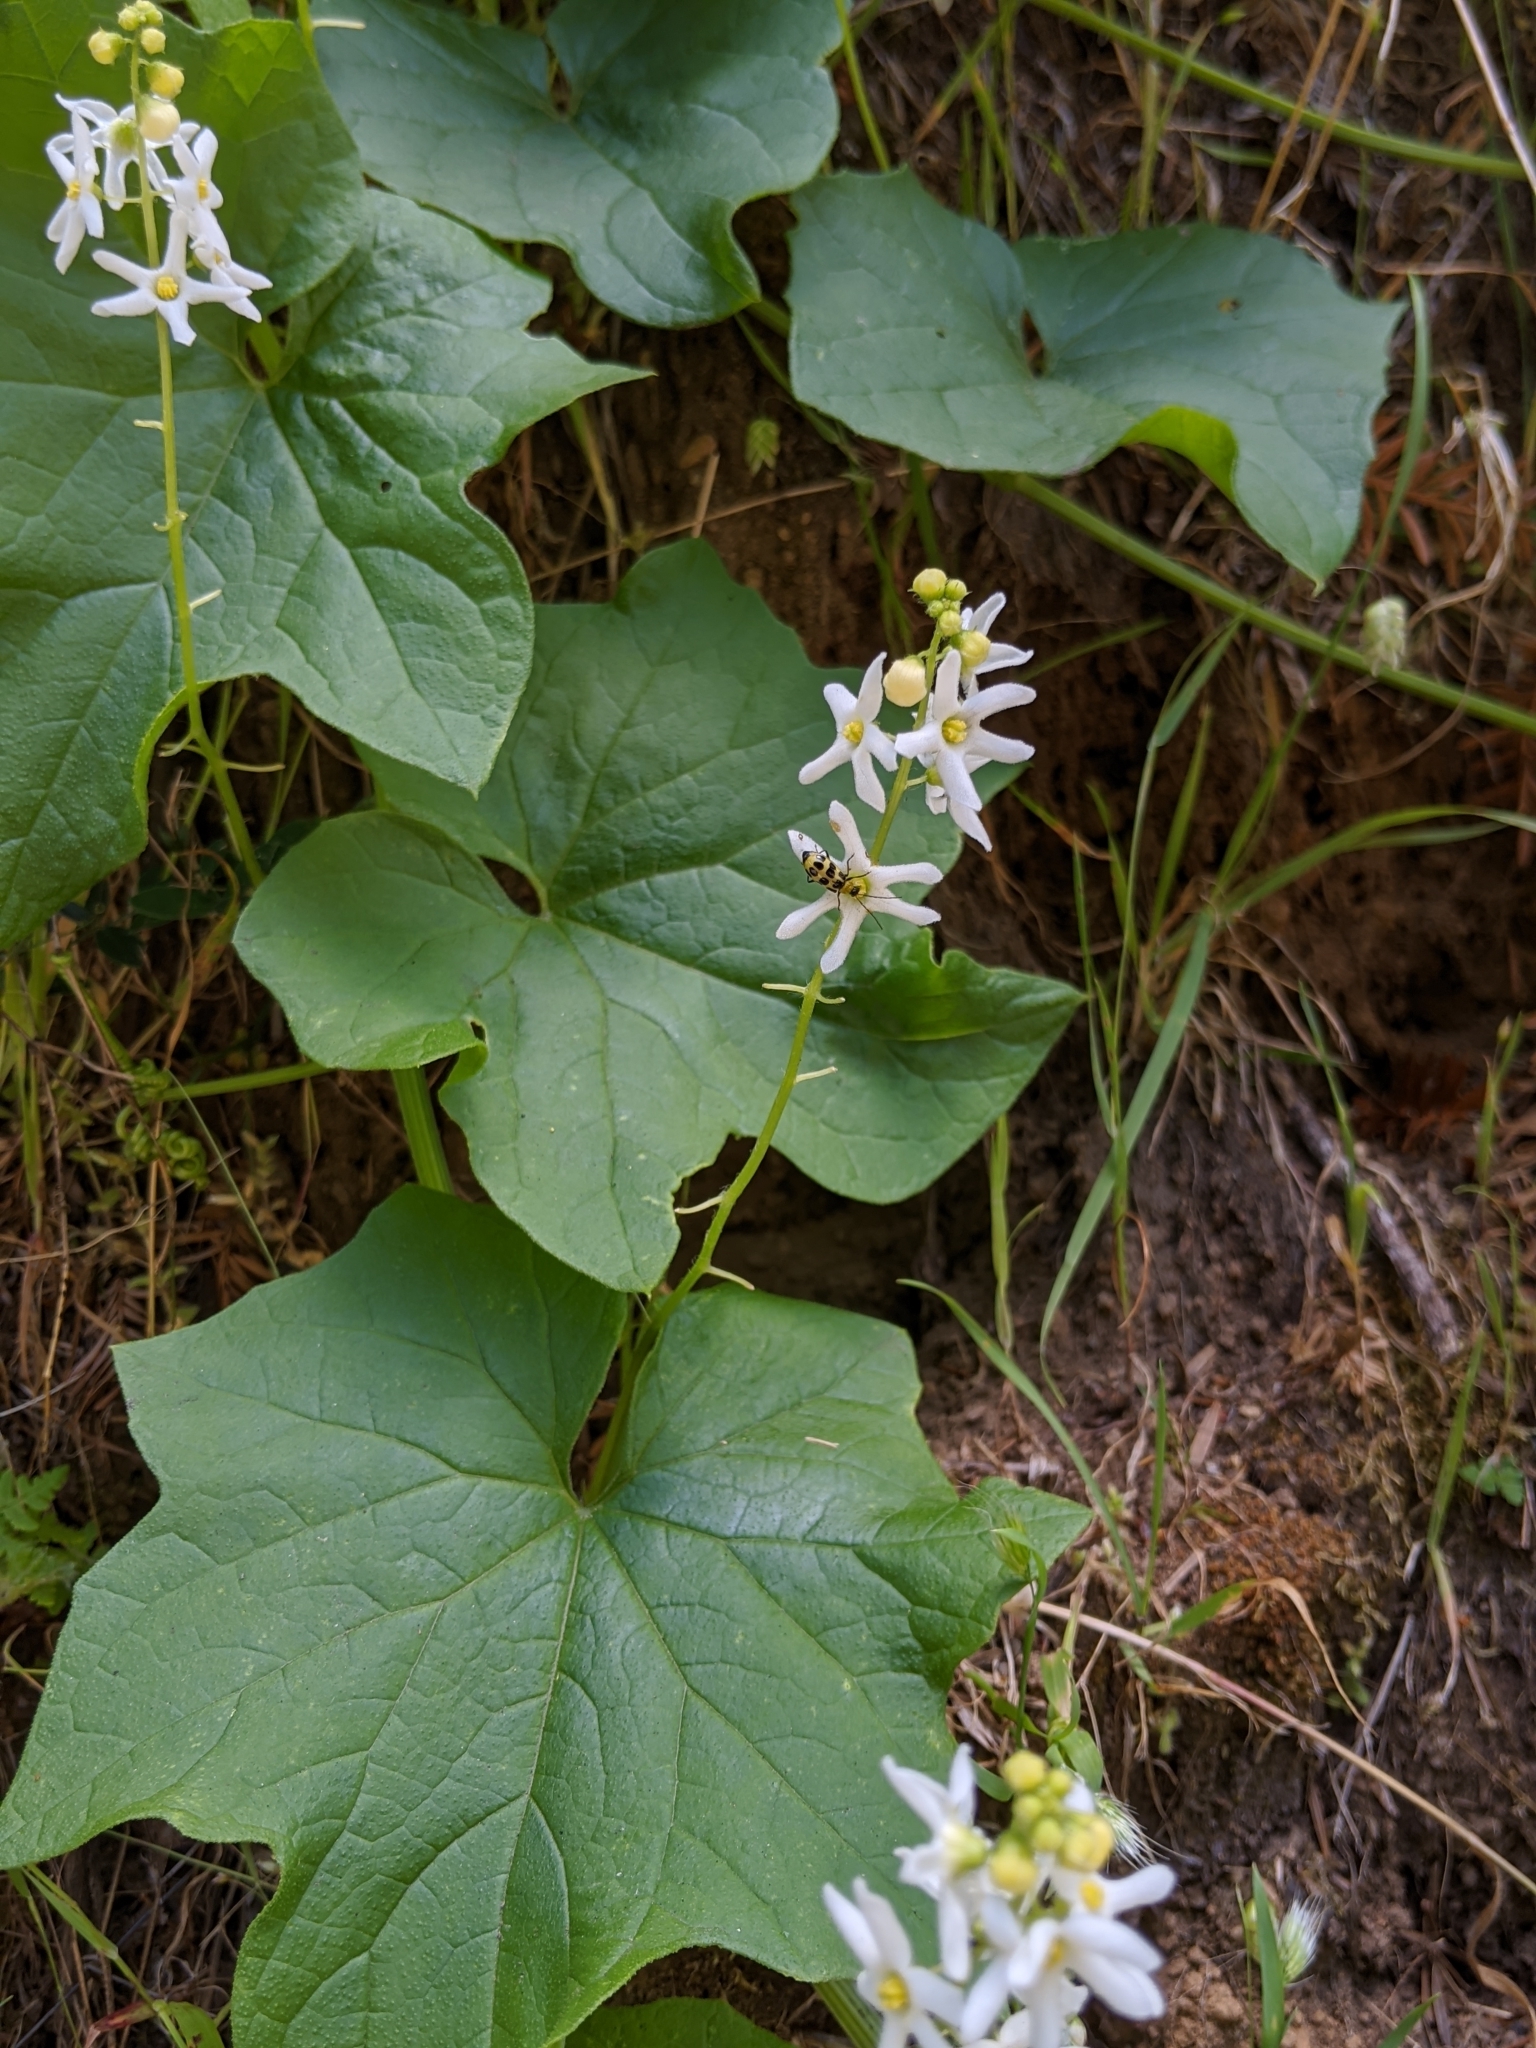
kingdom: Plantae
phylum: Tracheophyta
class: Magnoliopsida
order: Cucurbitales
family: Cucurbitaceae
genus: Marah
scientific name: Marah oregana
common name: Coastal manroot
